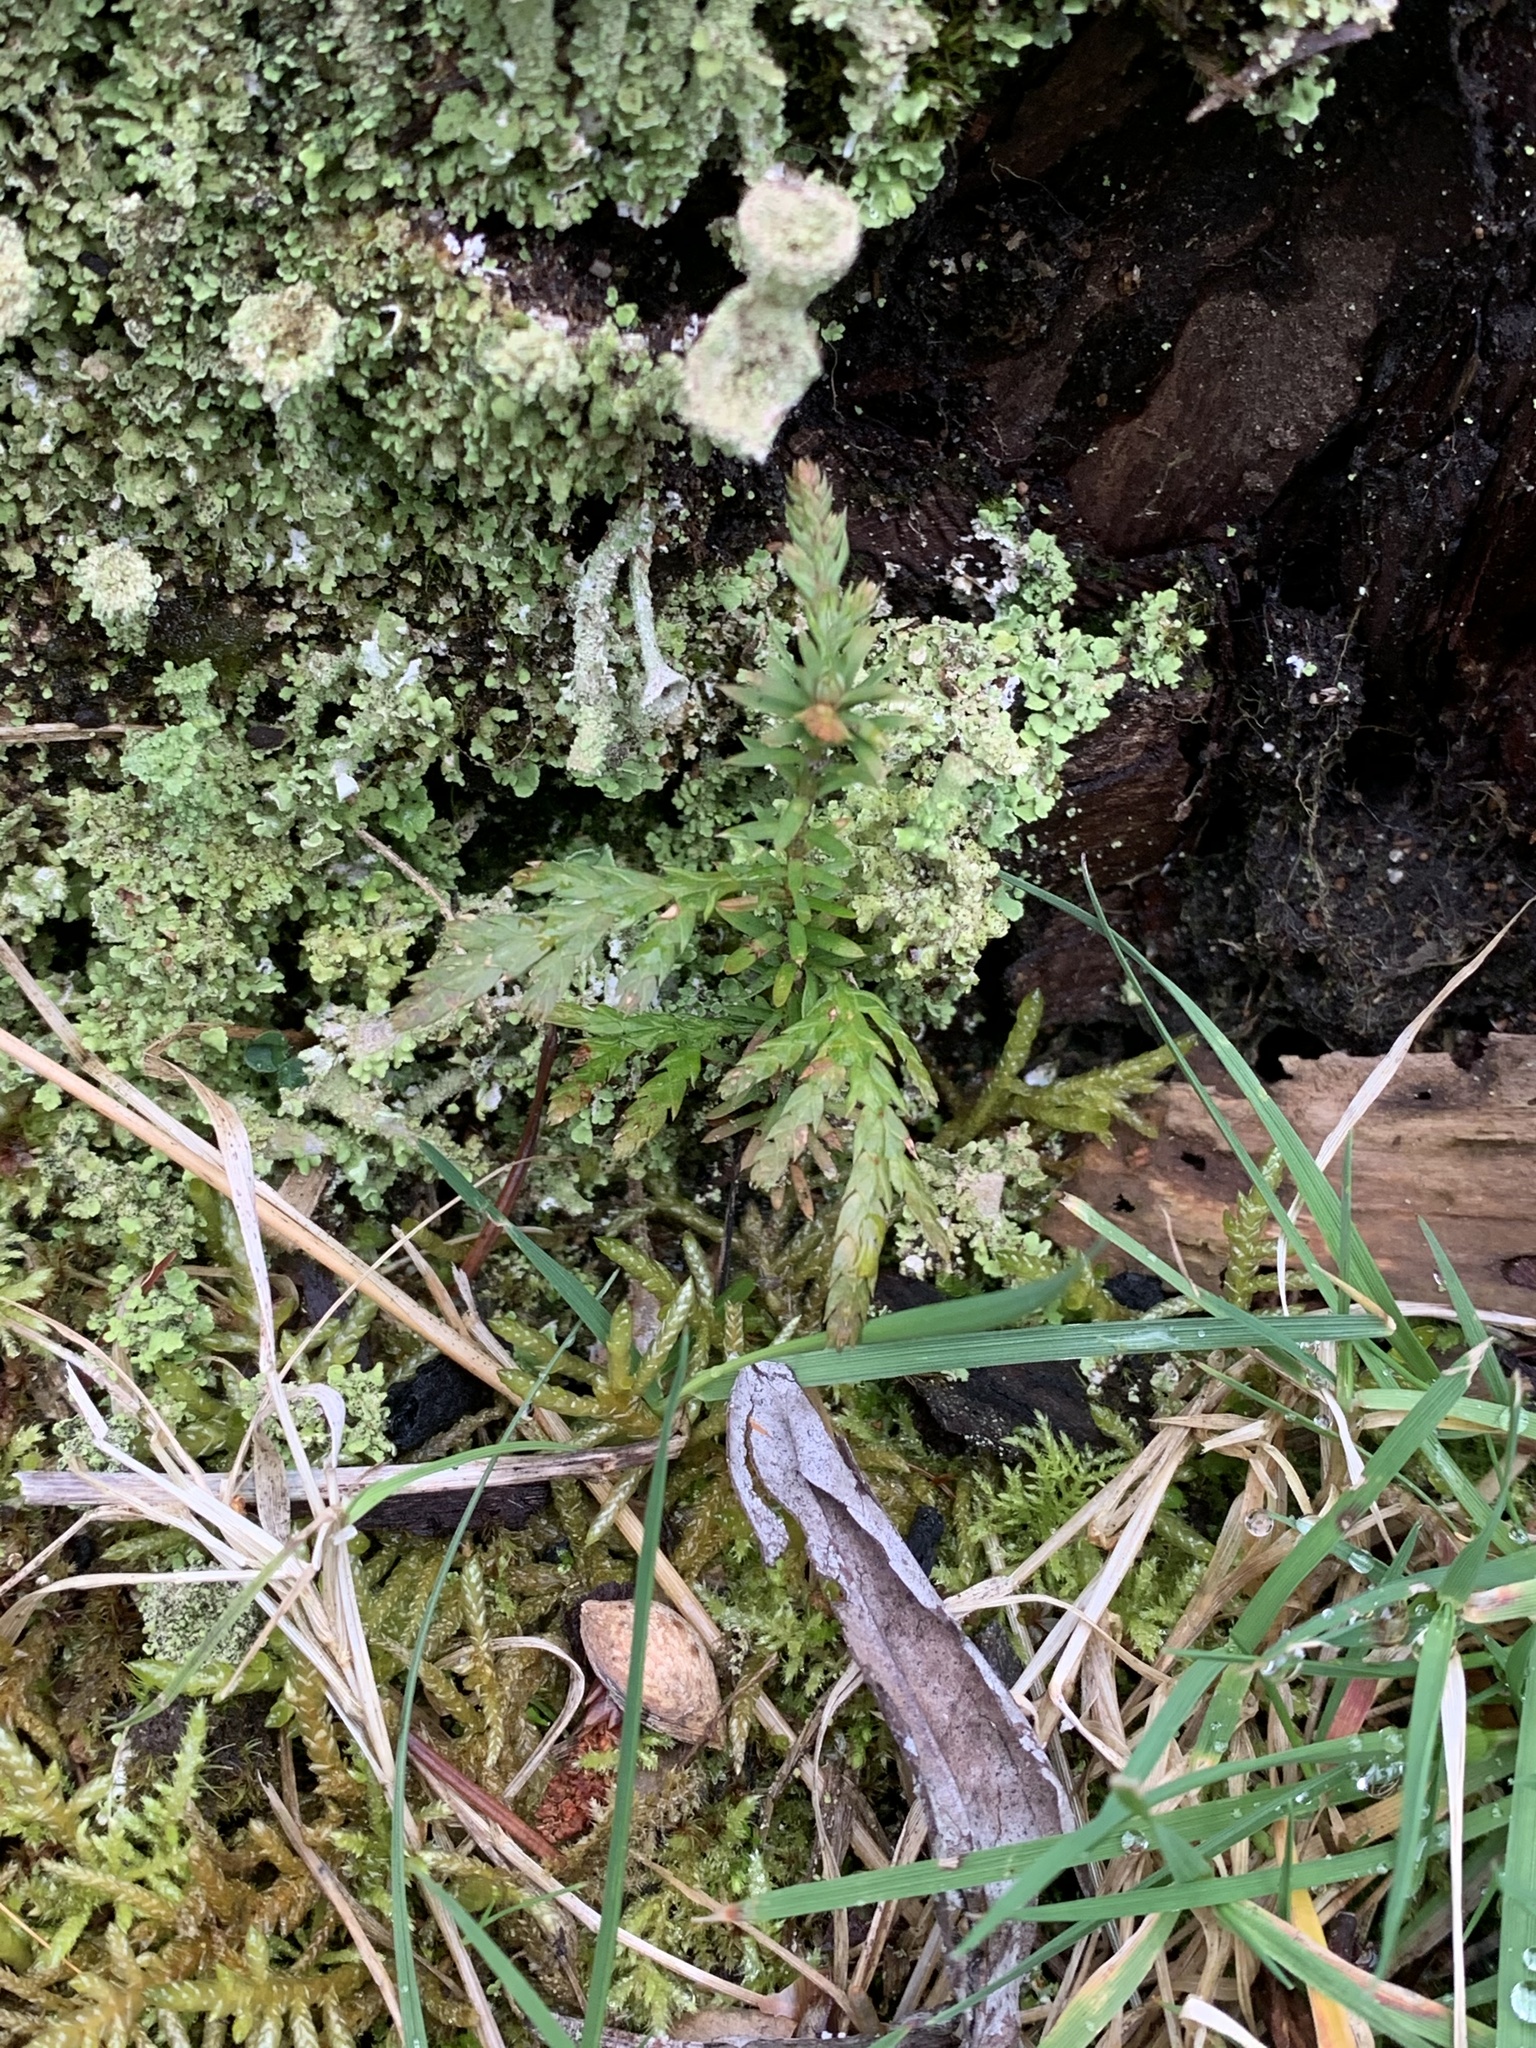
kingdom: Plantae
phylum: Tracheophyta
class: Pinopsida
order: Pinales
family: Cupressaceae
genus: Thuja
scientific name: Thuja plicata
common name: Western red-cedar
